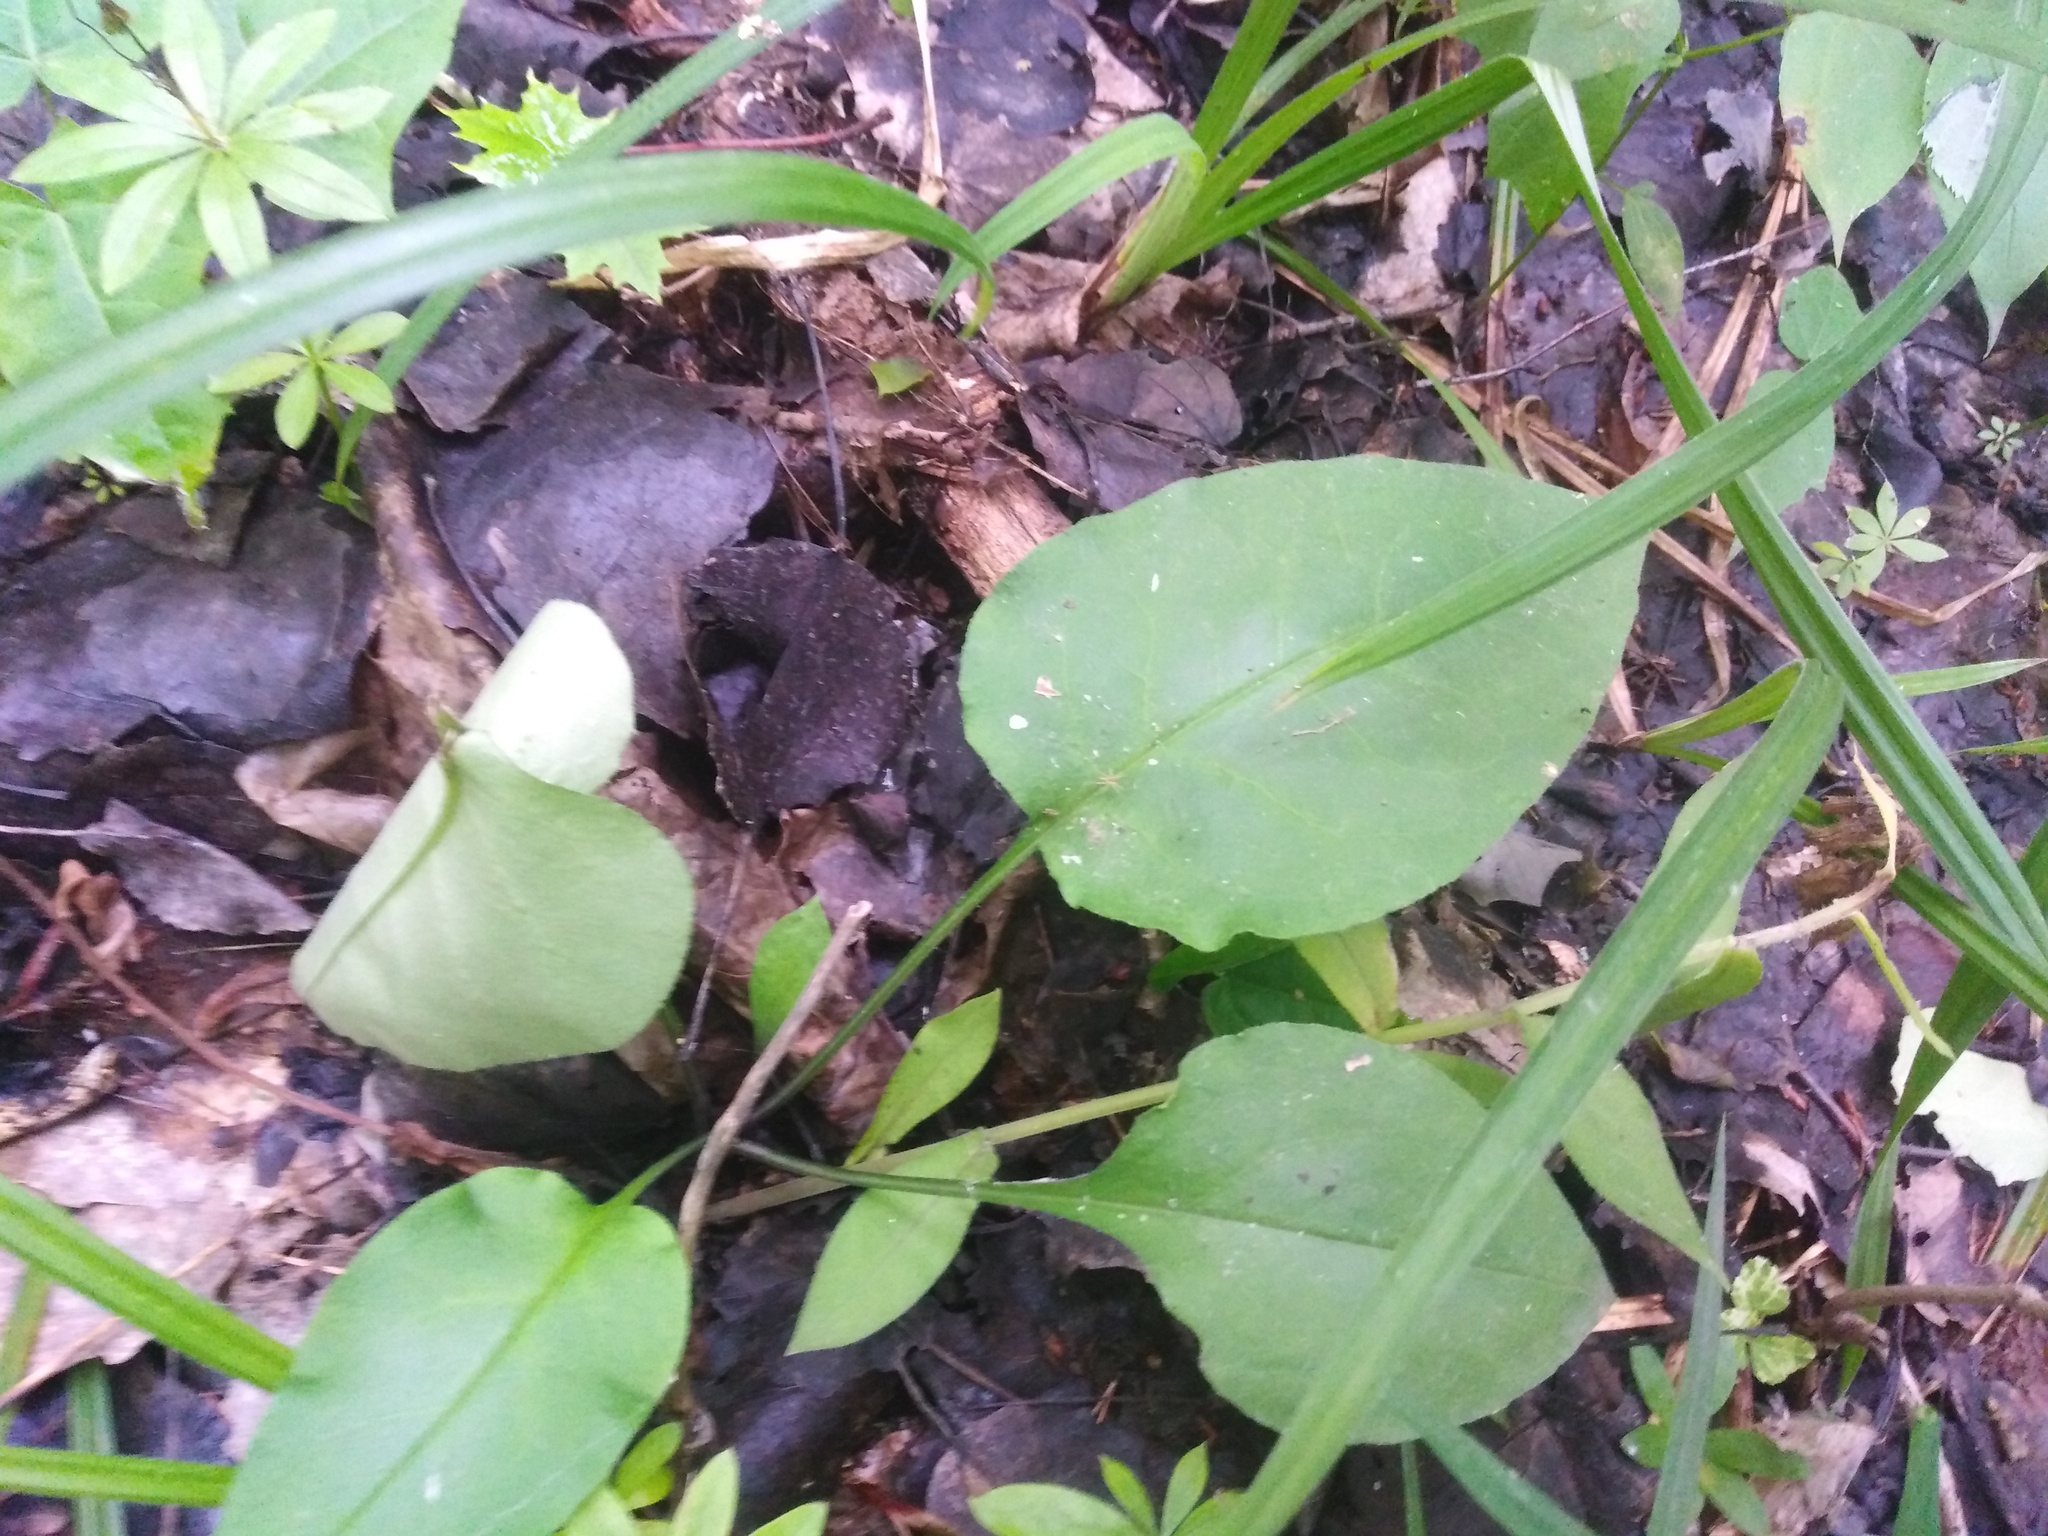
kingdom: Plantae
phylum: Tracheophyta
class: Magnoliopsida
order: Boraginales
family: Boraginaceae
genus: Pulmonaria
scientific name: Pulmonaria obscura
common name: Suffolk lungwort
